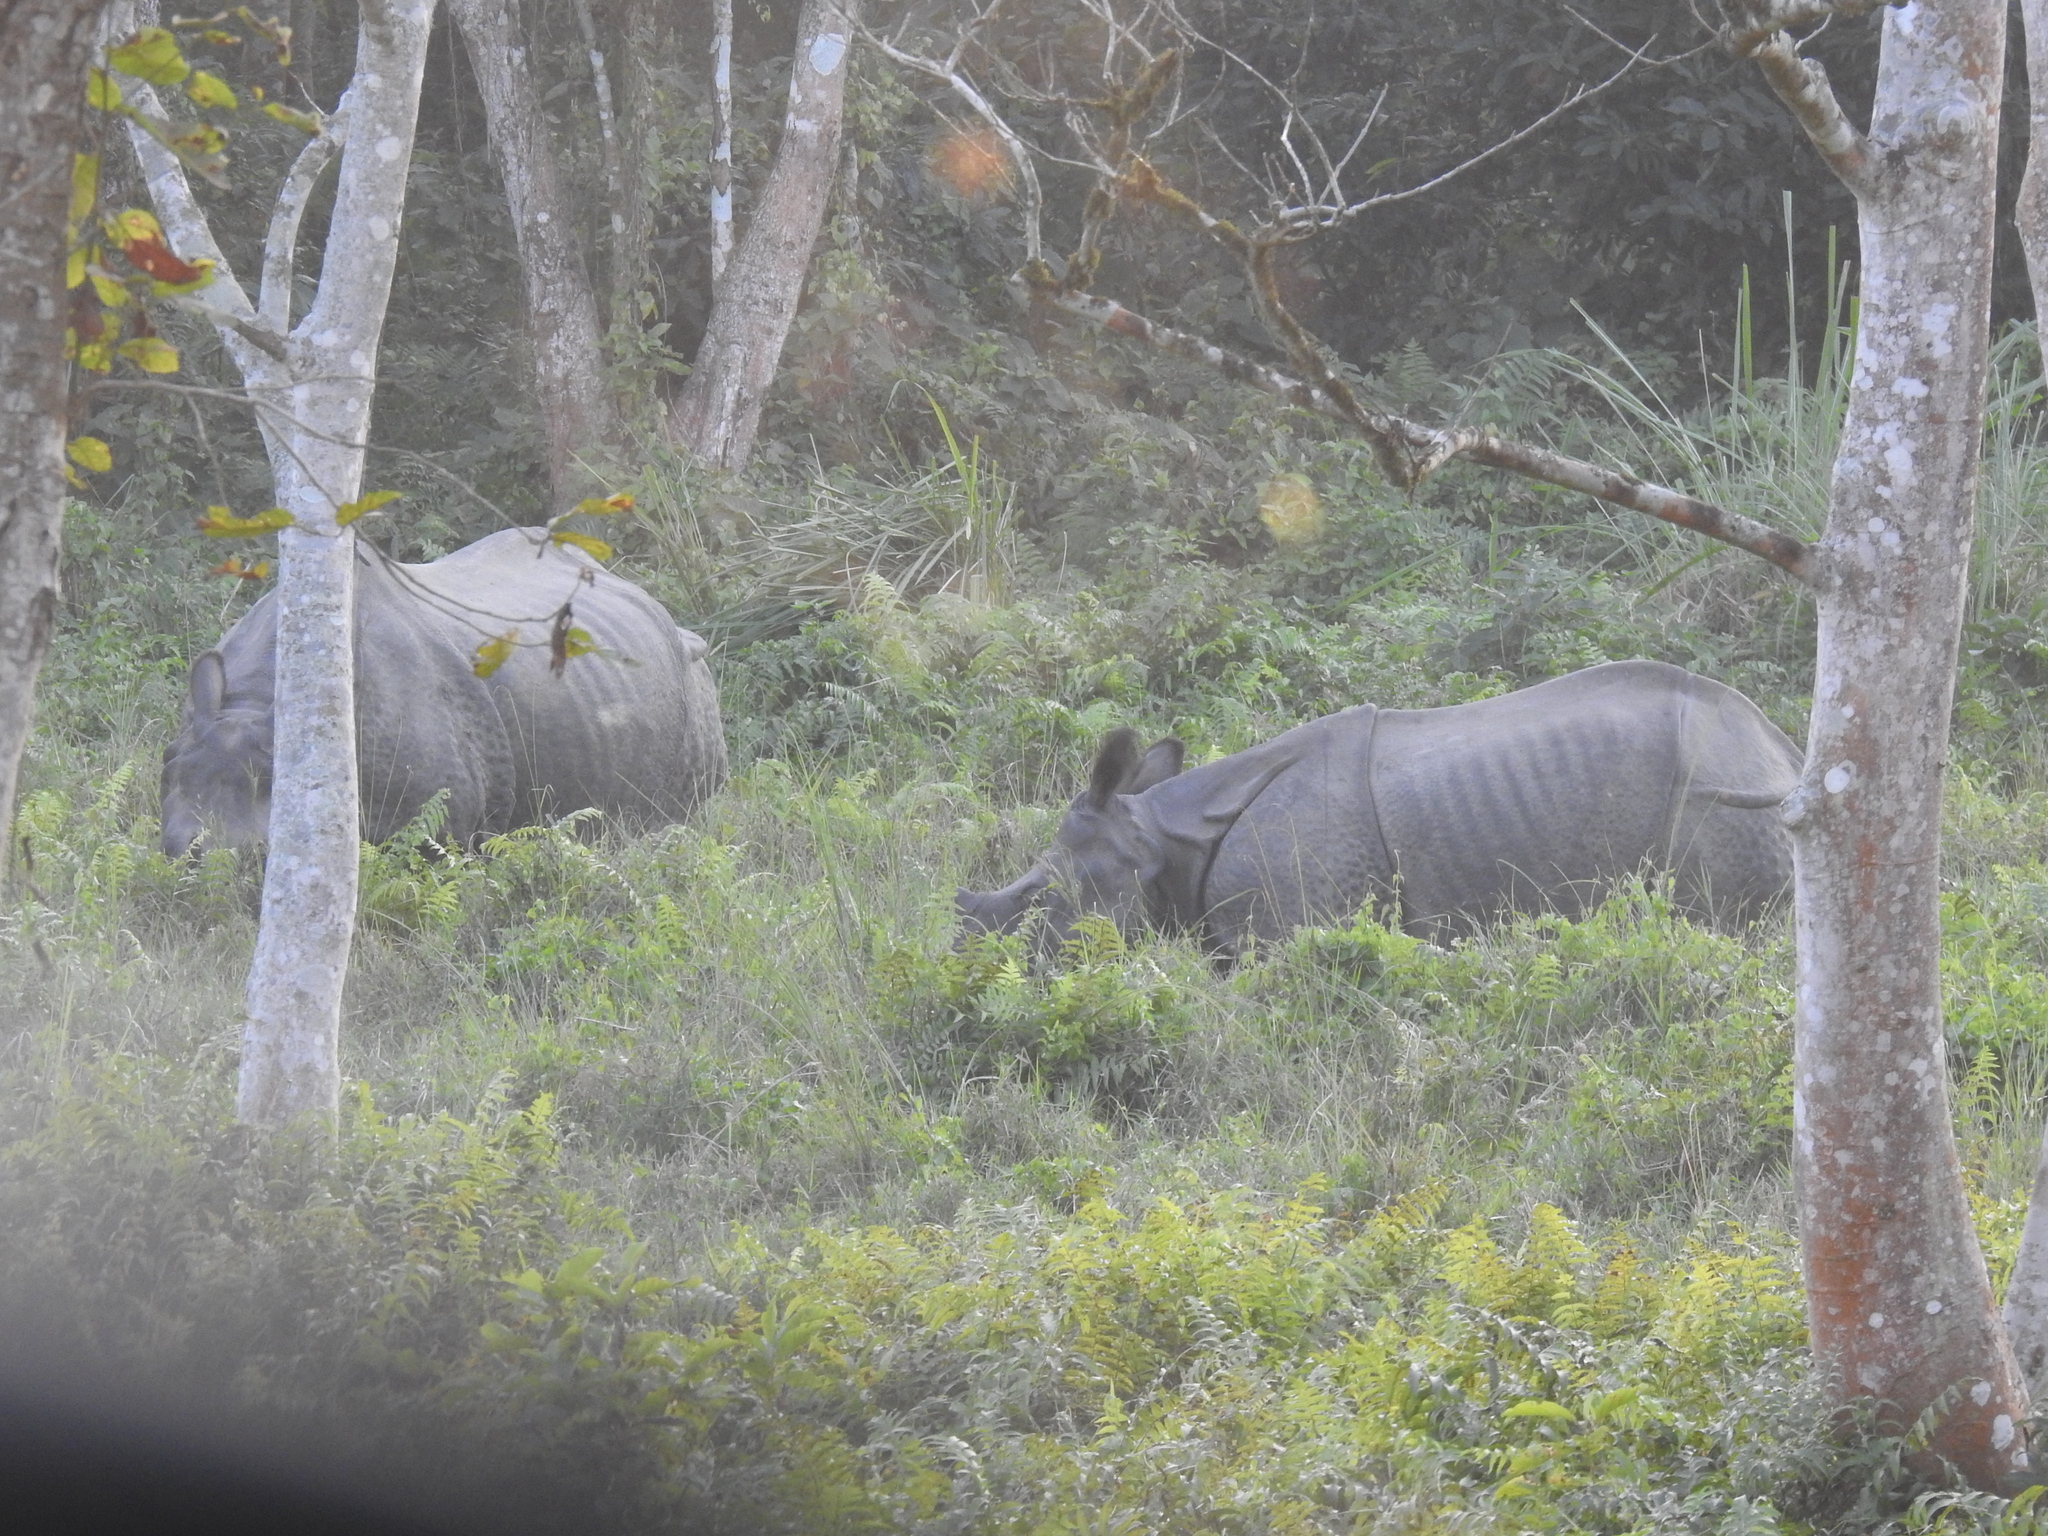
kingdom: Animalia
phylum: Chordata
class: Mammalia
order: Perissodactyla
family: Rhinocerotidae
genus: Rhinoceros
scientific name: Rhinoceros unicornis
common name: Indian rhinoceros
